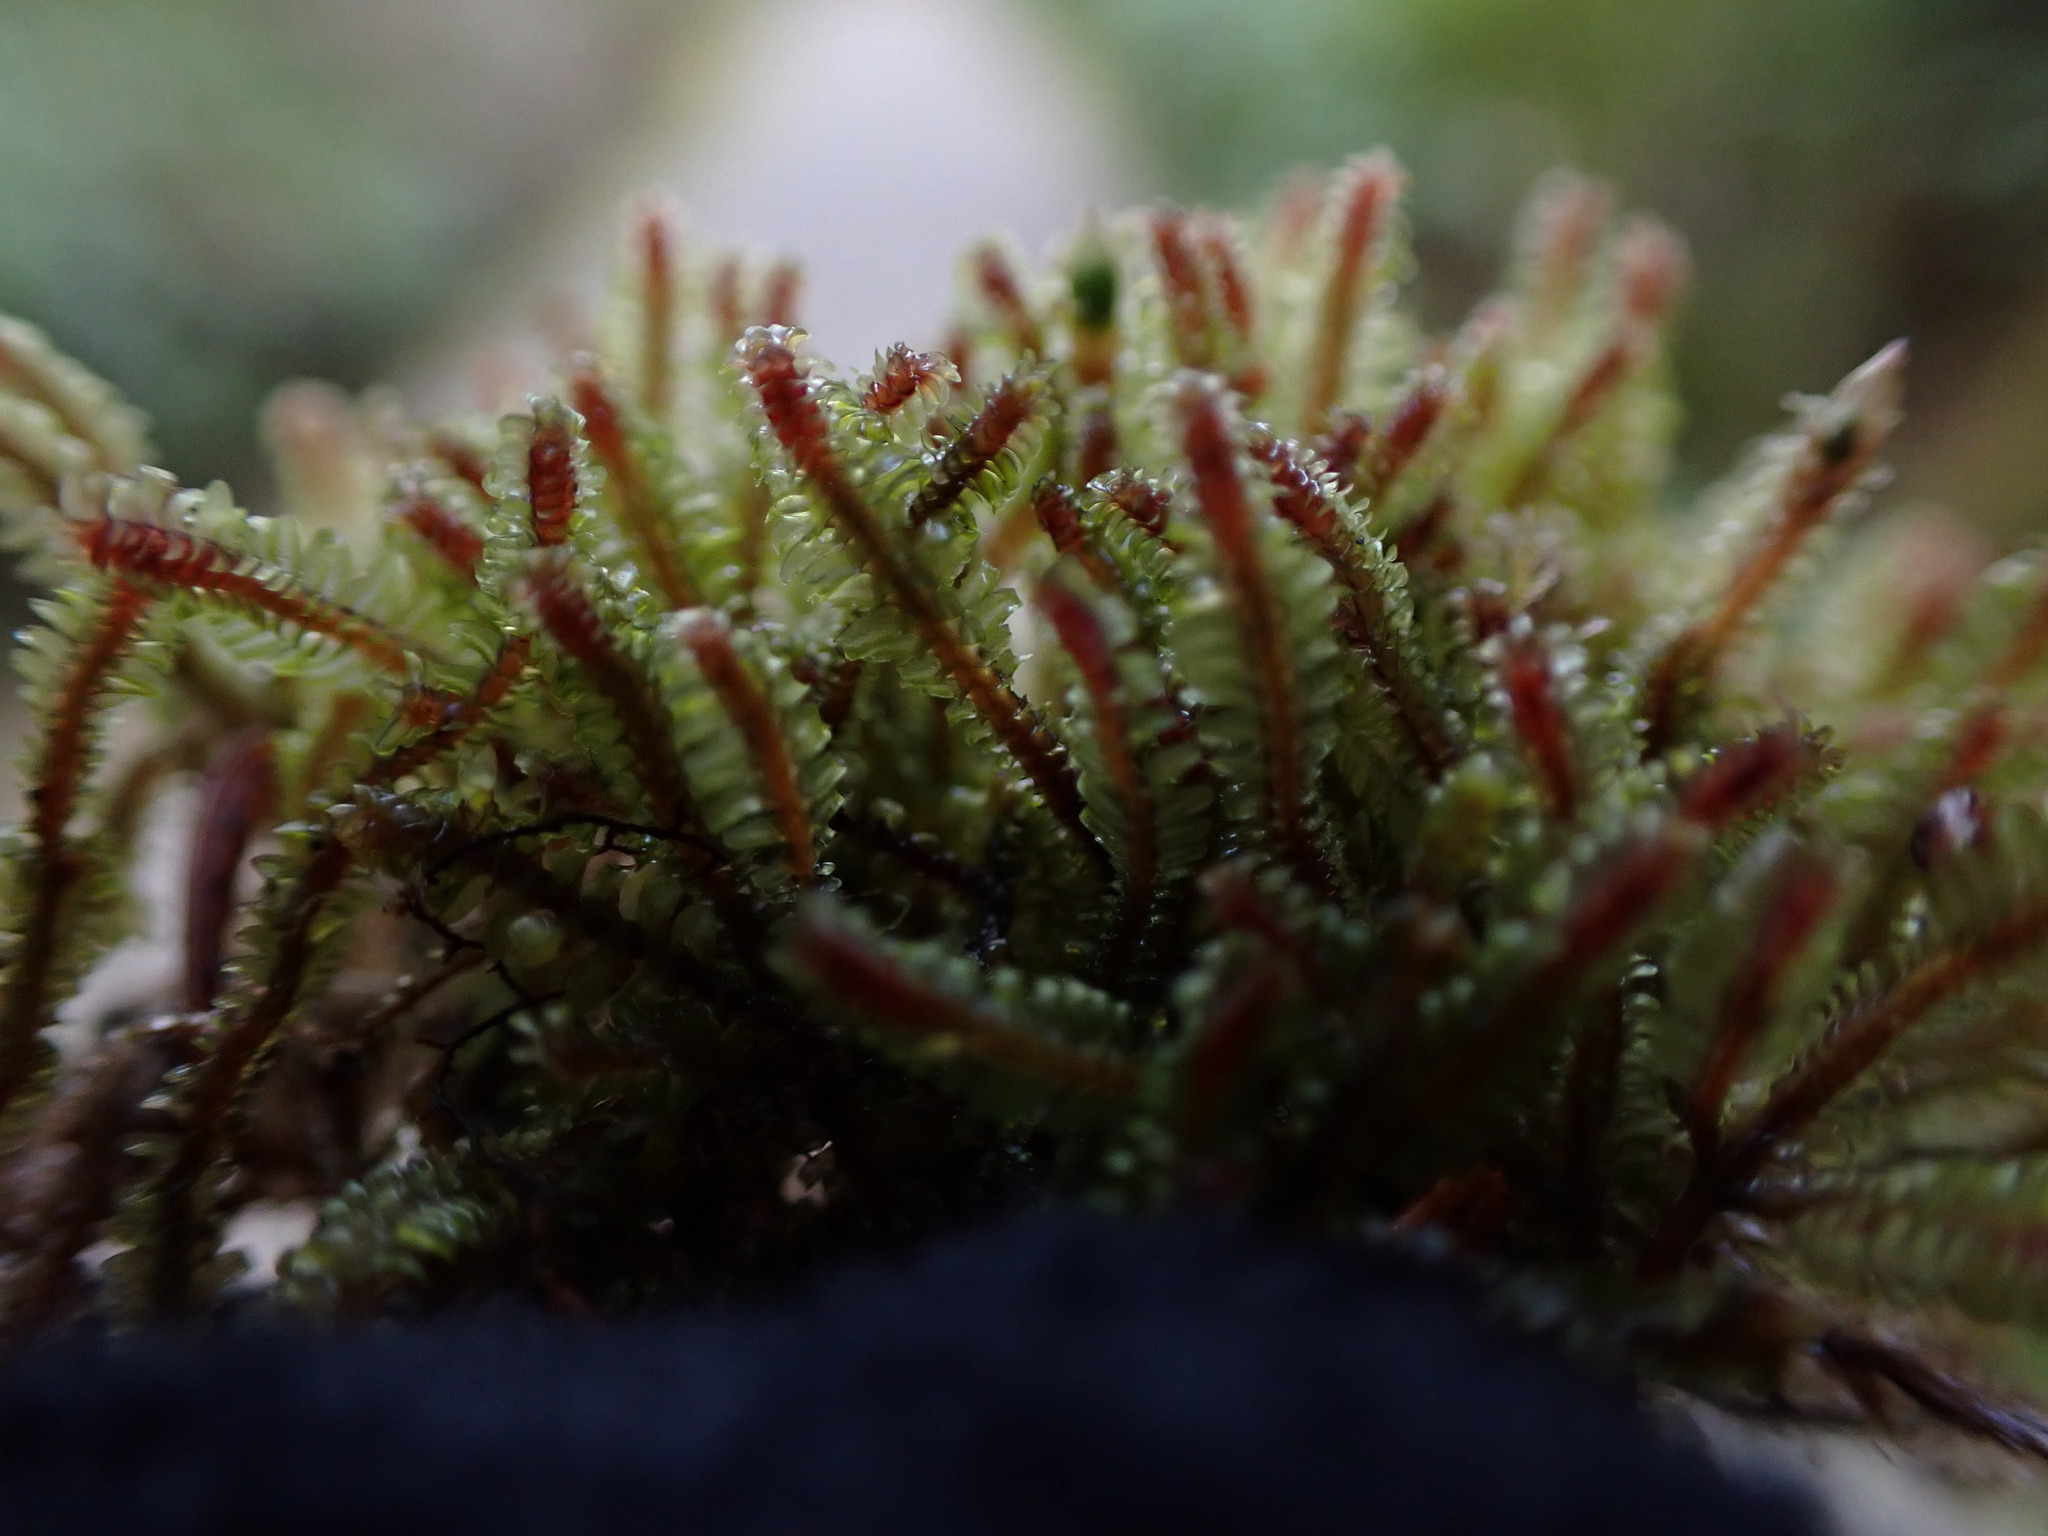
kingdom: Plantae
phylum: Marchantiophyta
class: Jungermanniopsida
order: Jungermanniales
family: Scapaniaceae
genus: Diplophyllum
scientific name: Diplophyllum albicans
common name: White earwort
